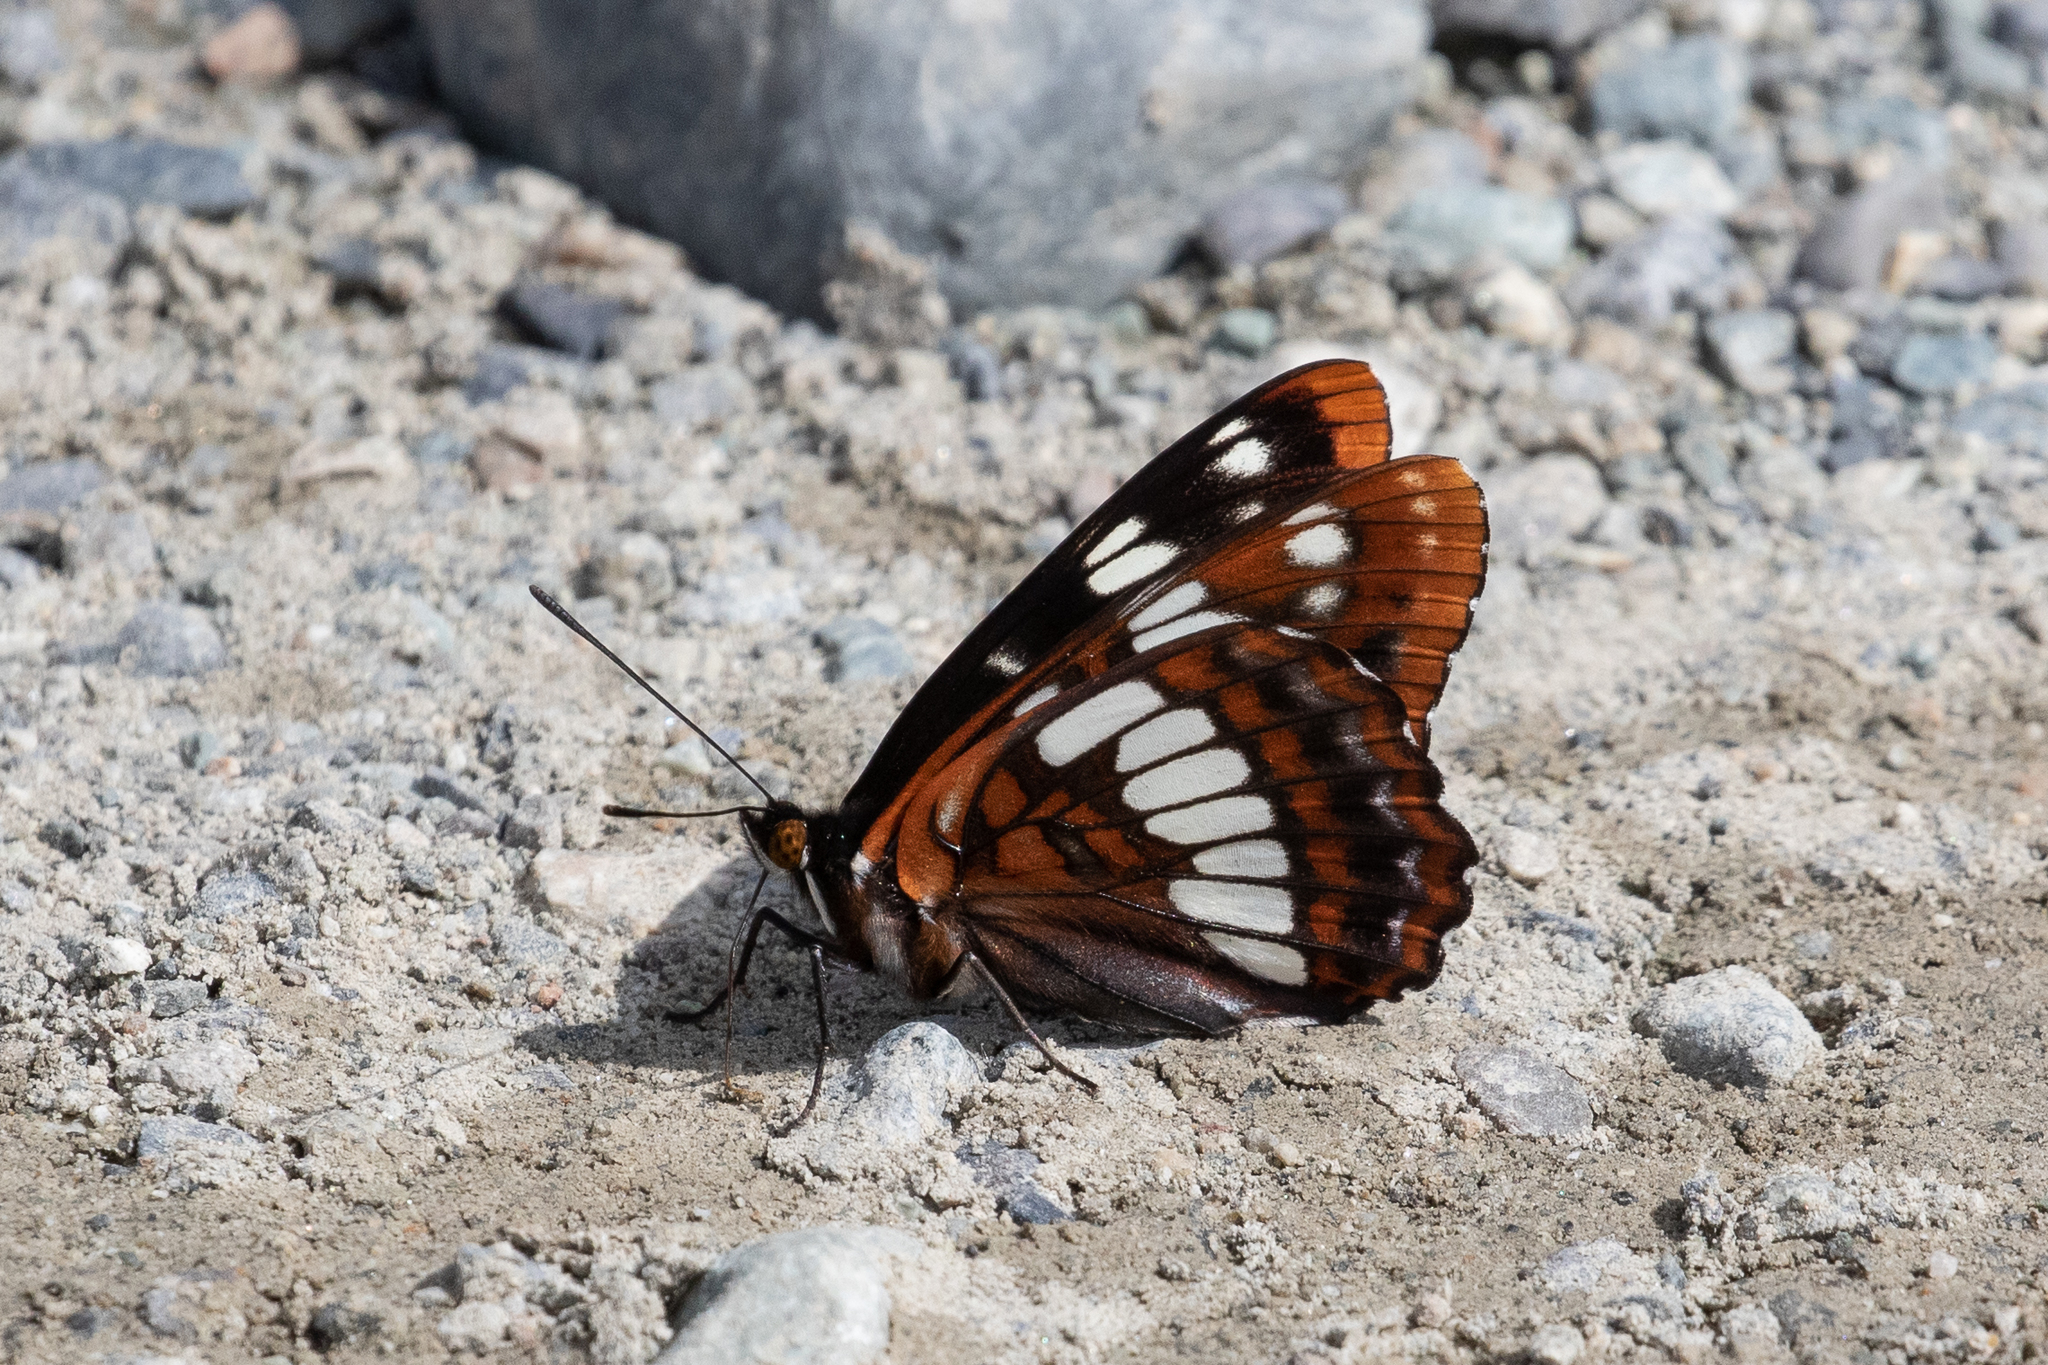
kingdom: Animalia
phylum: Arthropoda
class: Insecta
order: Lepidoptera
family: Nymphalidae
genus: Limenitis
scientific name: Limenitis lorquini
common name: Lorquin's admiral
